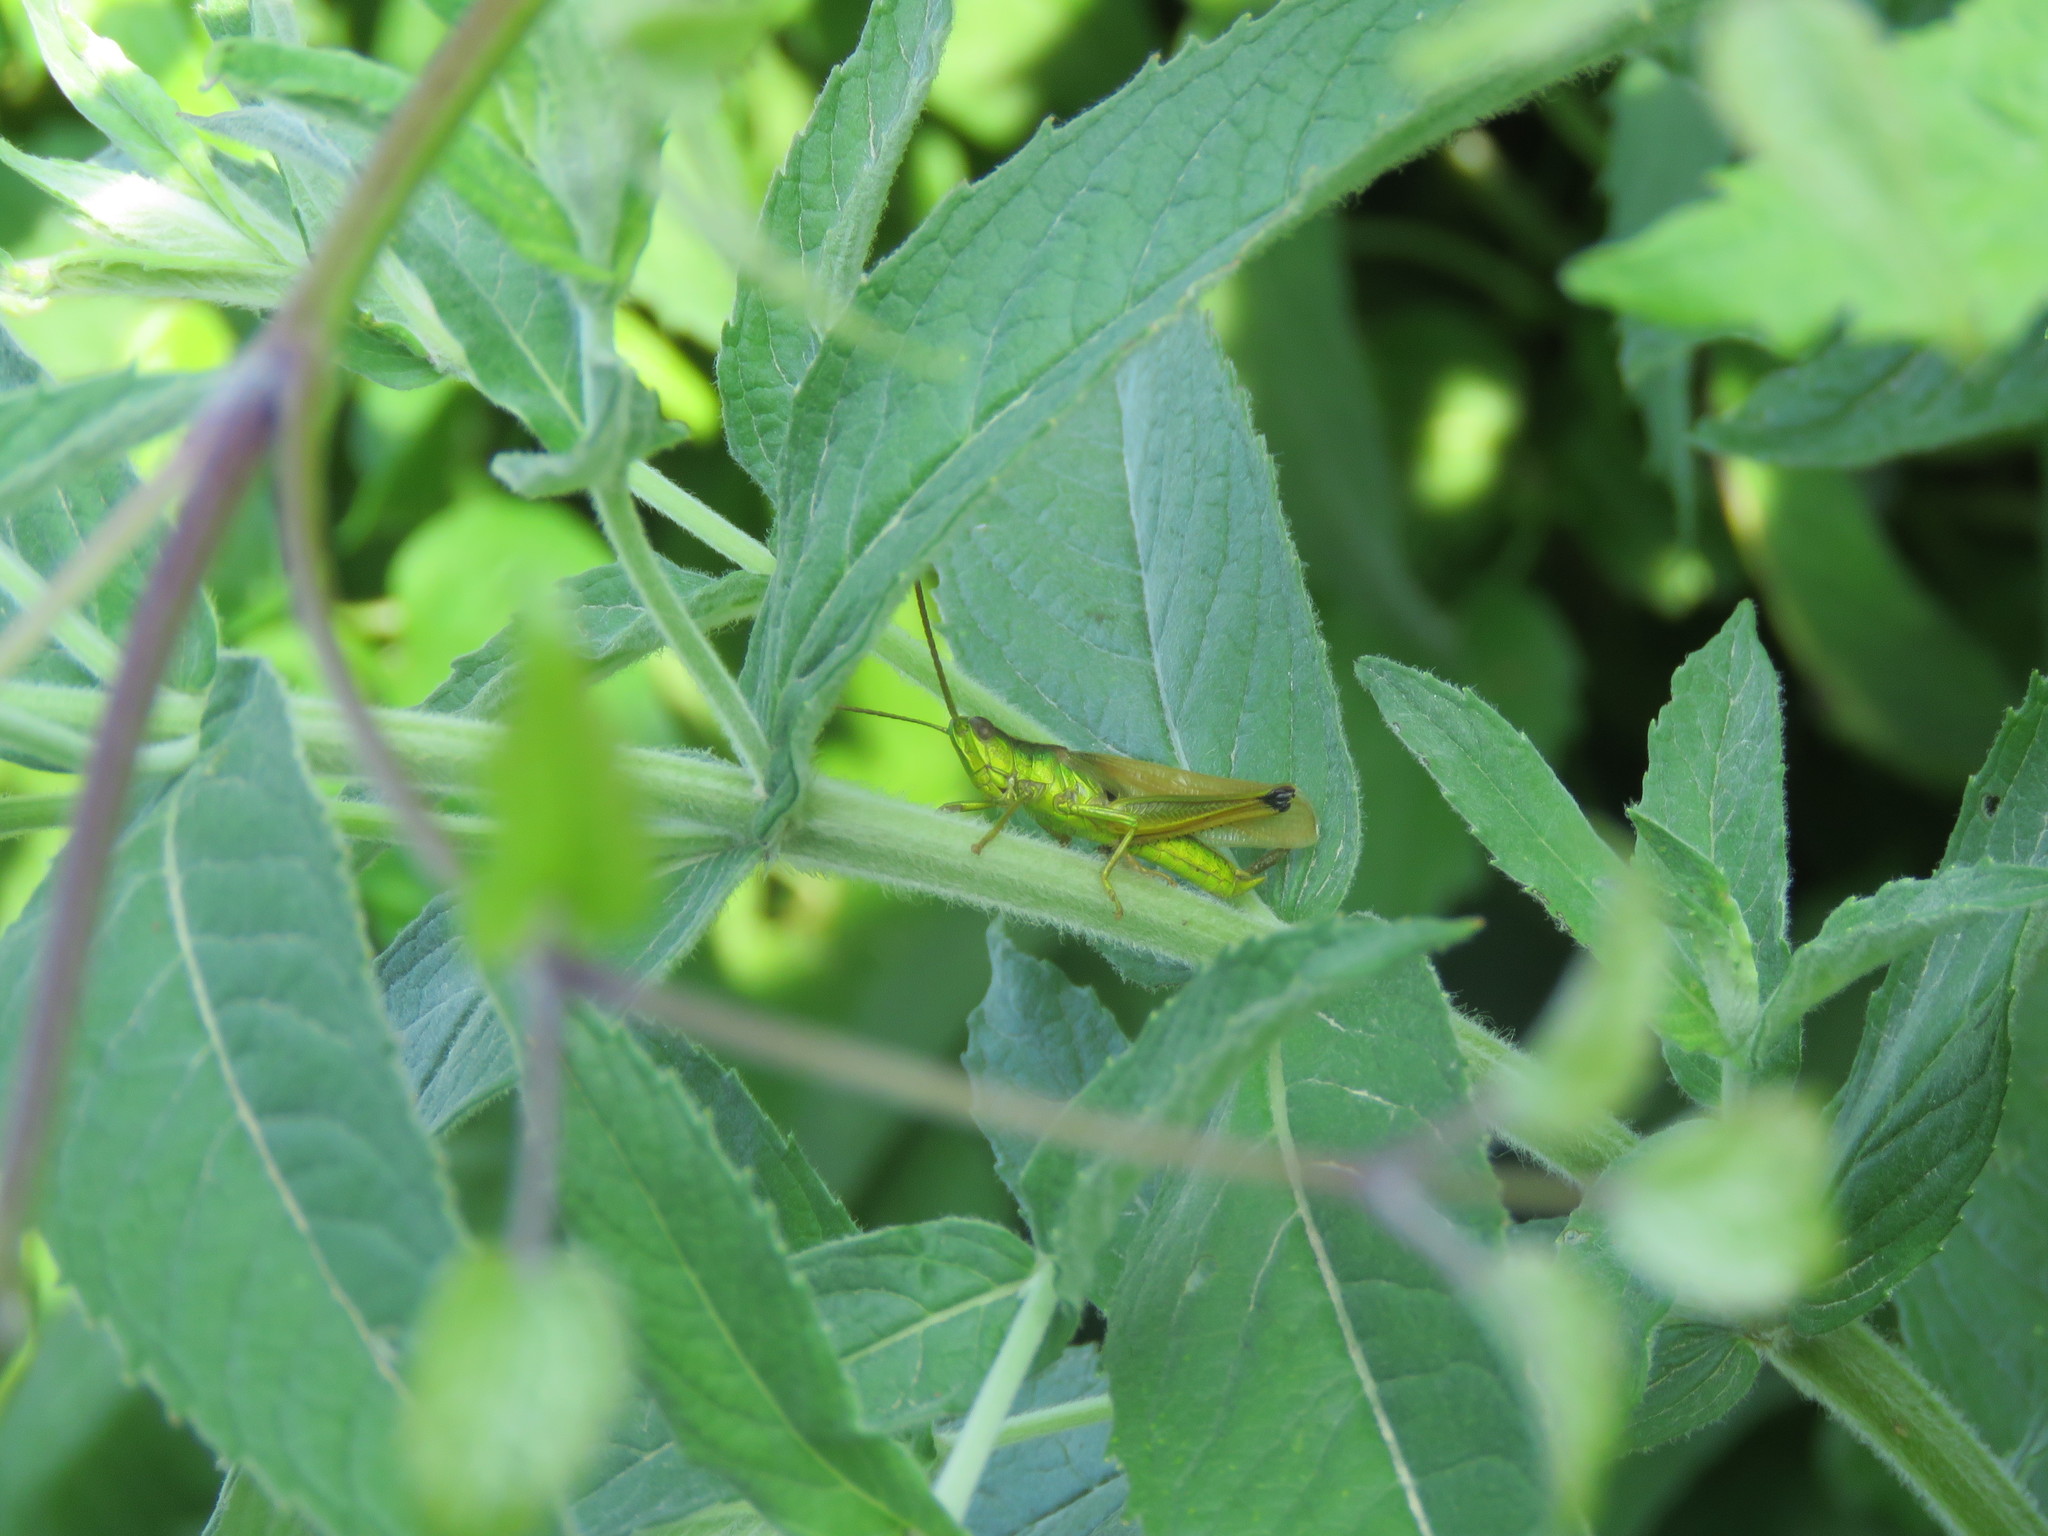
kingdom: Animalia
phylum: Arthropoda
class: Insecta
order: Orthoptera
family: Acrididae
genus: Chrysochraon
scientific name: Chrysochraon dispar
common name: Large gold grasshopper
